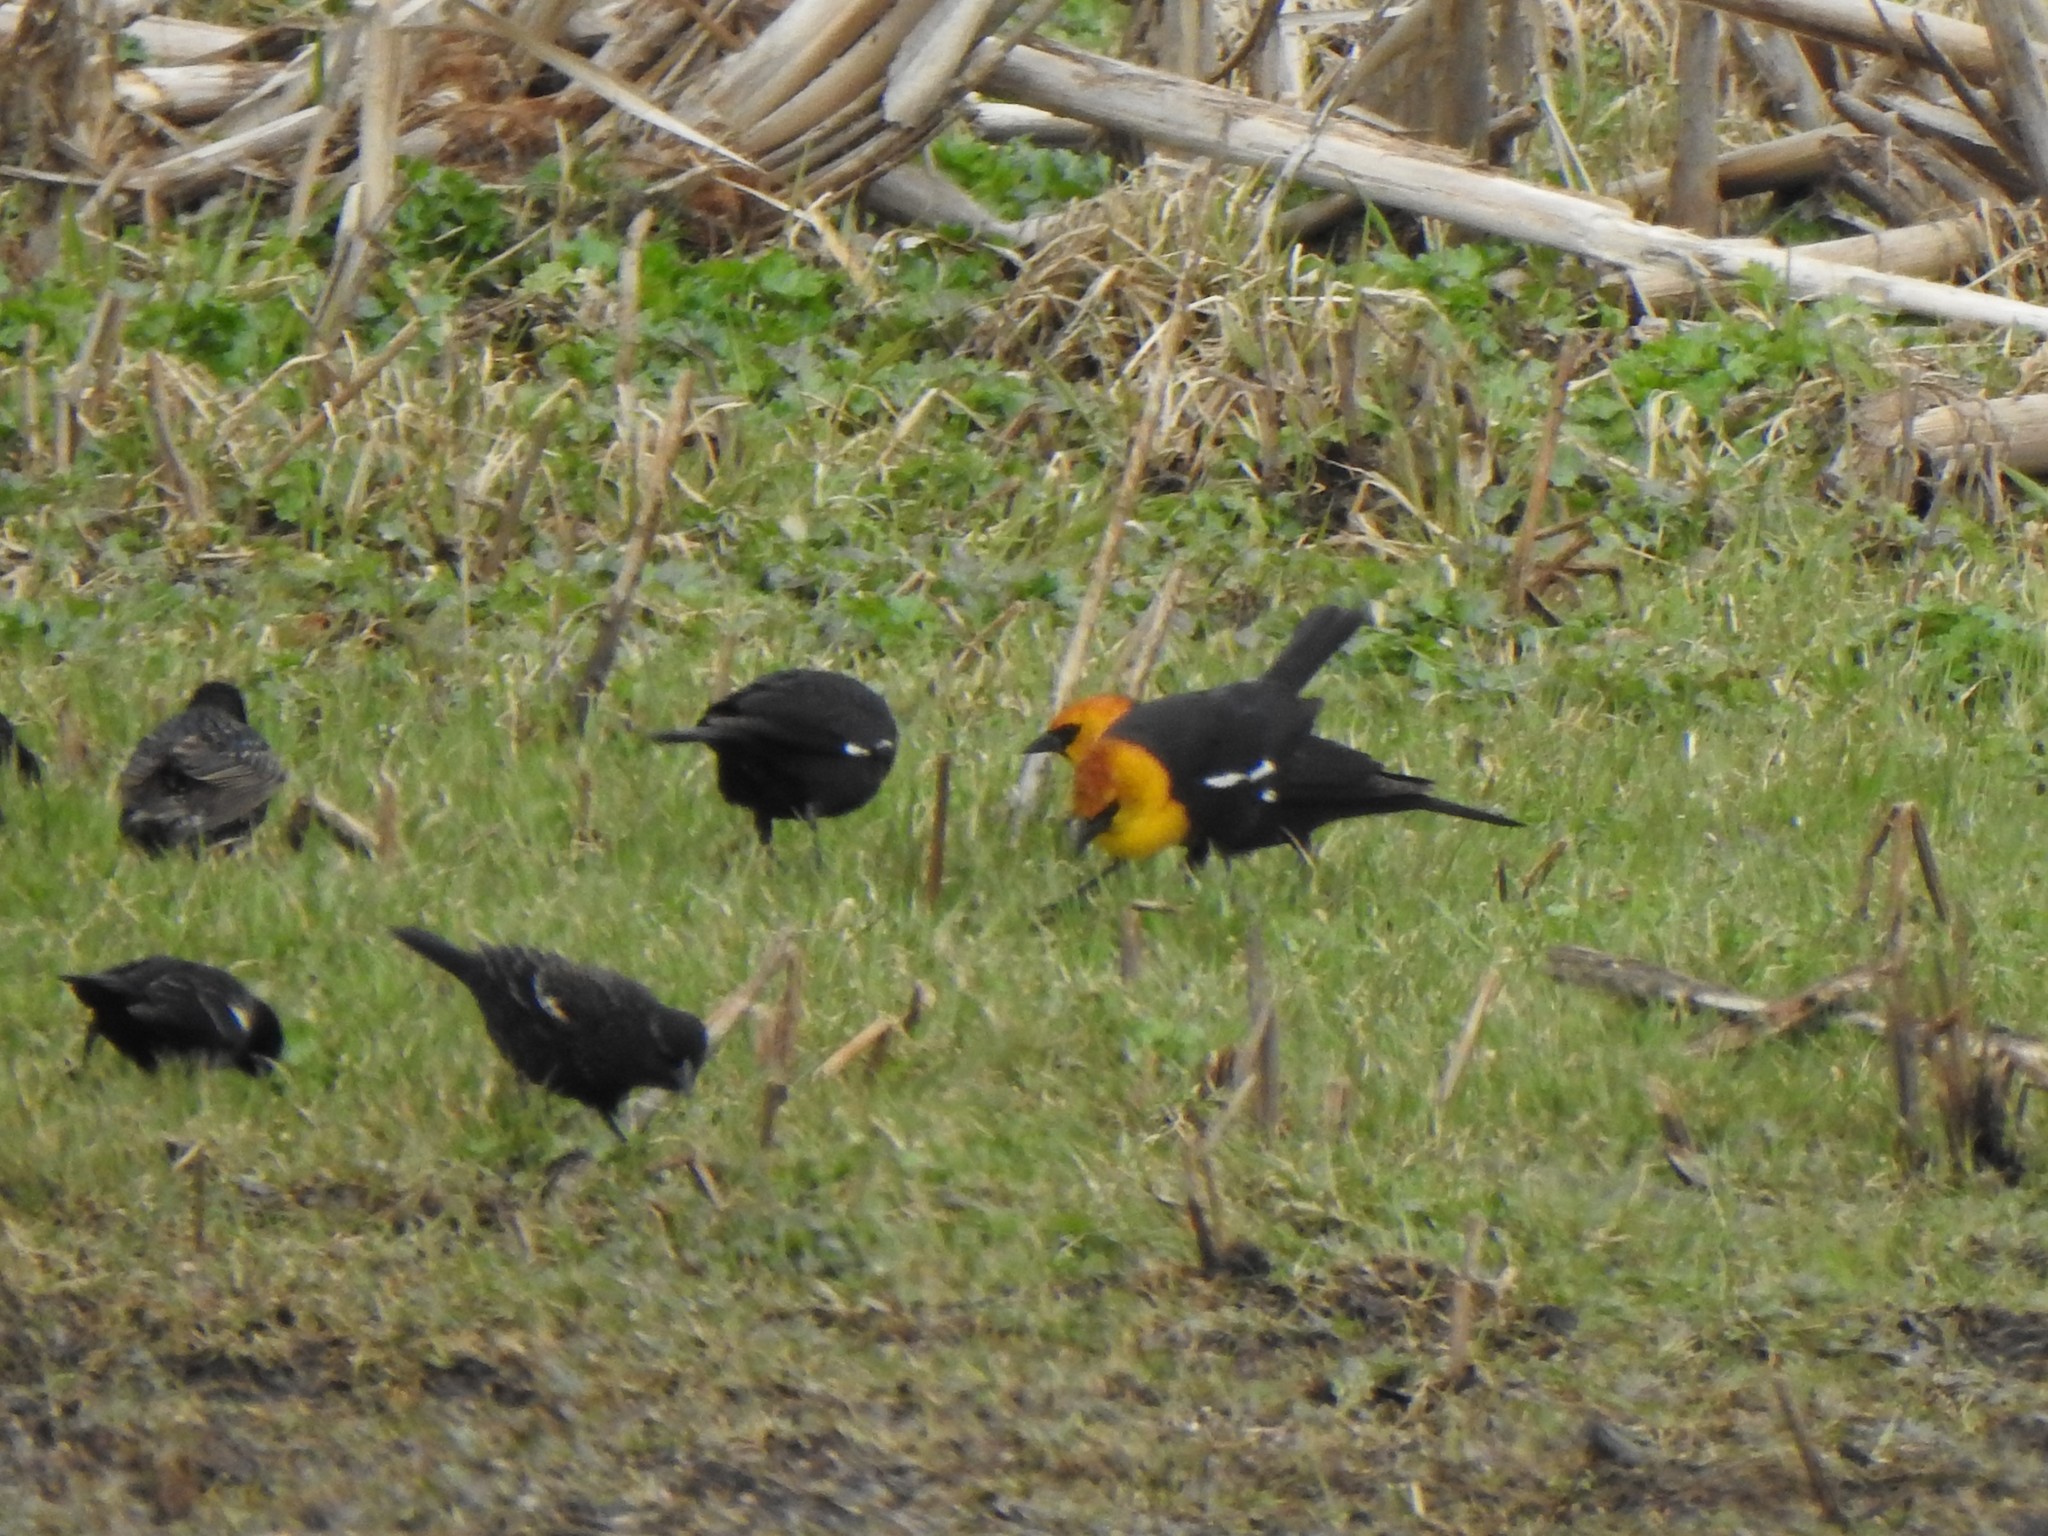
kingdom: Animalia
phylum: Chordata
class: Aves
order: Passeriformes
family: Icteridae
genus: Xanthocephalus
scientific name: Xanthocephalus xanthocephalus
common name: Yellow-headed blackbird
